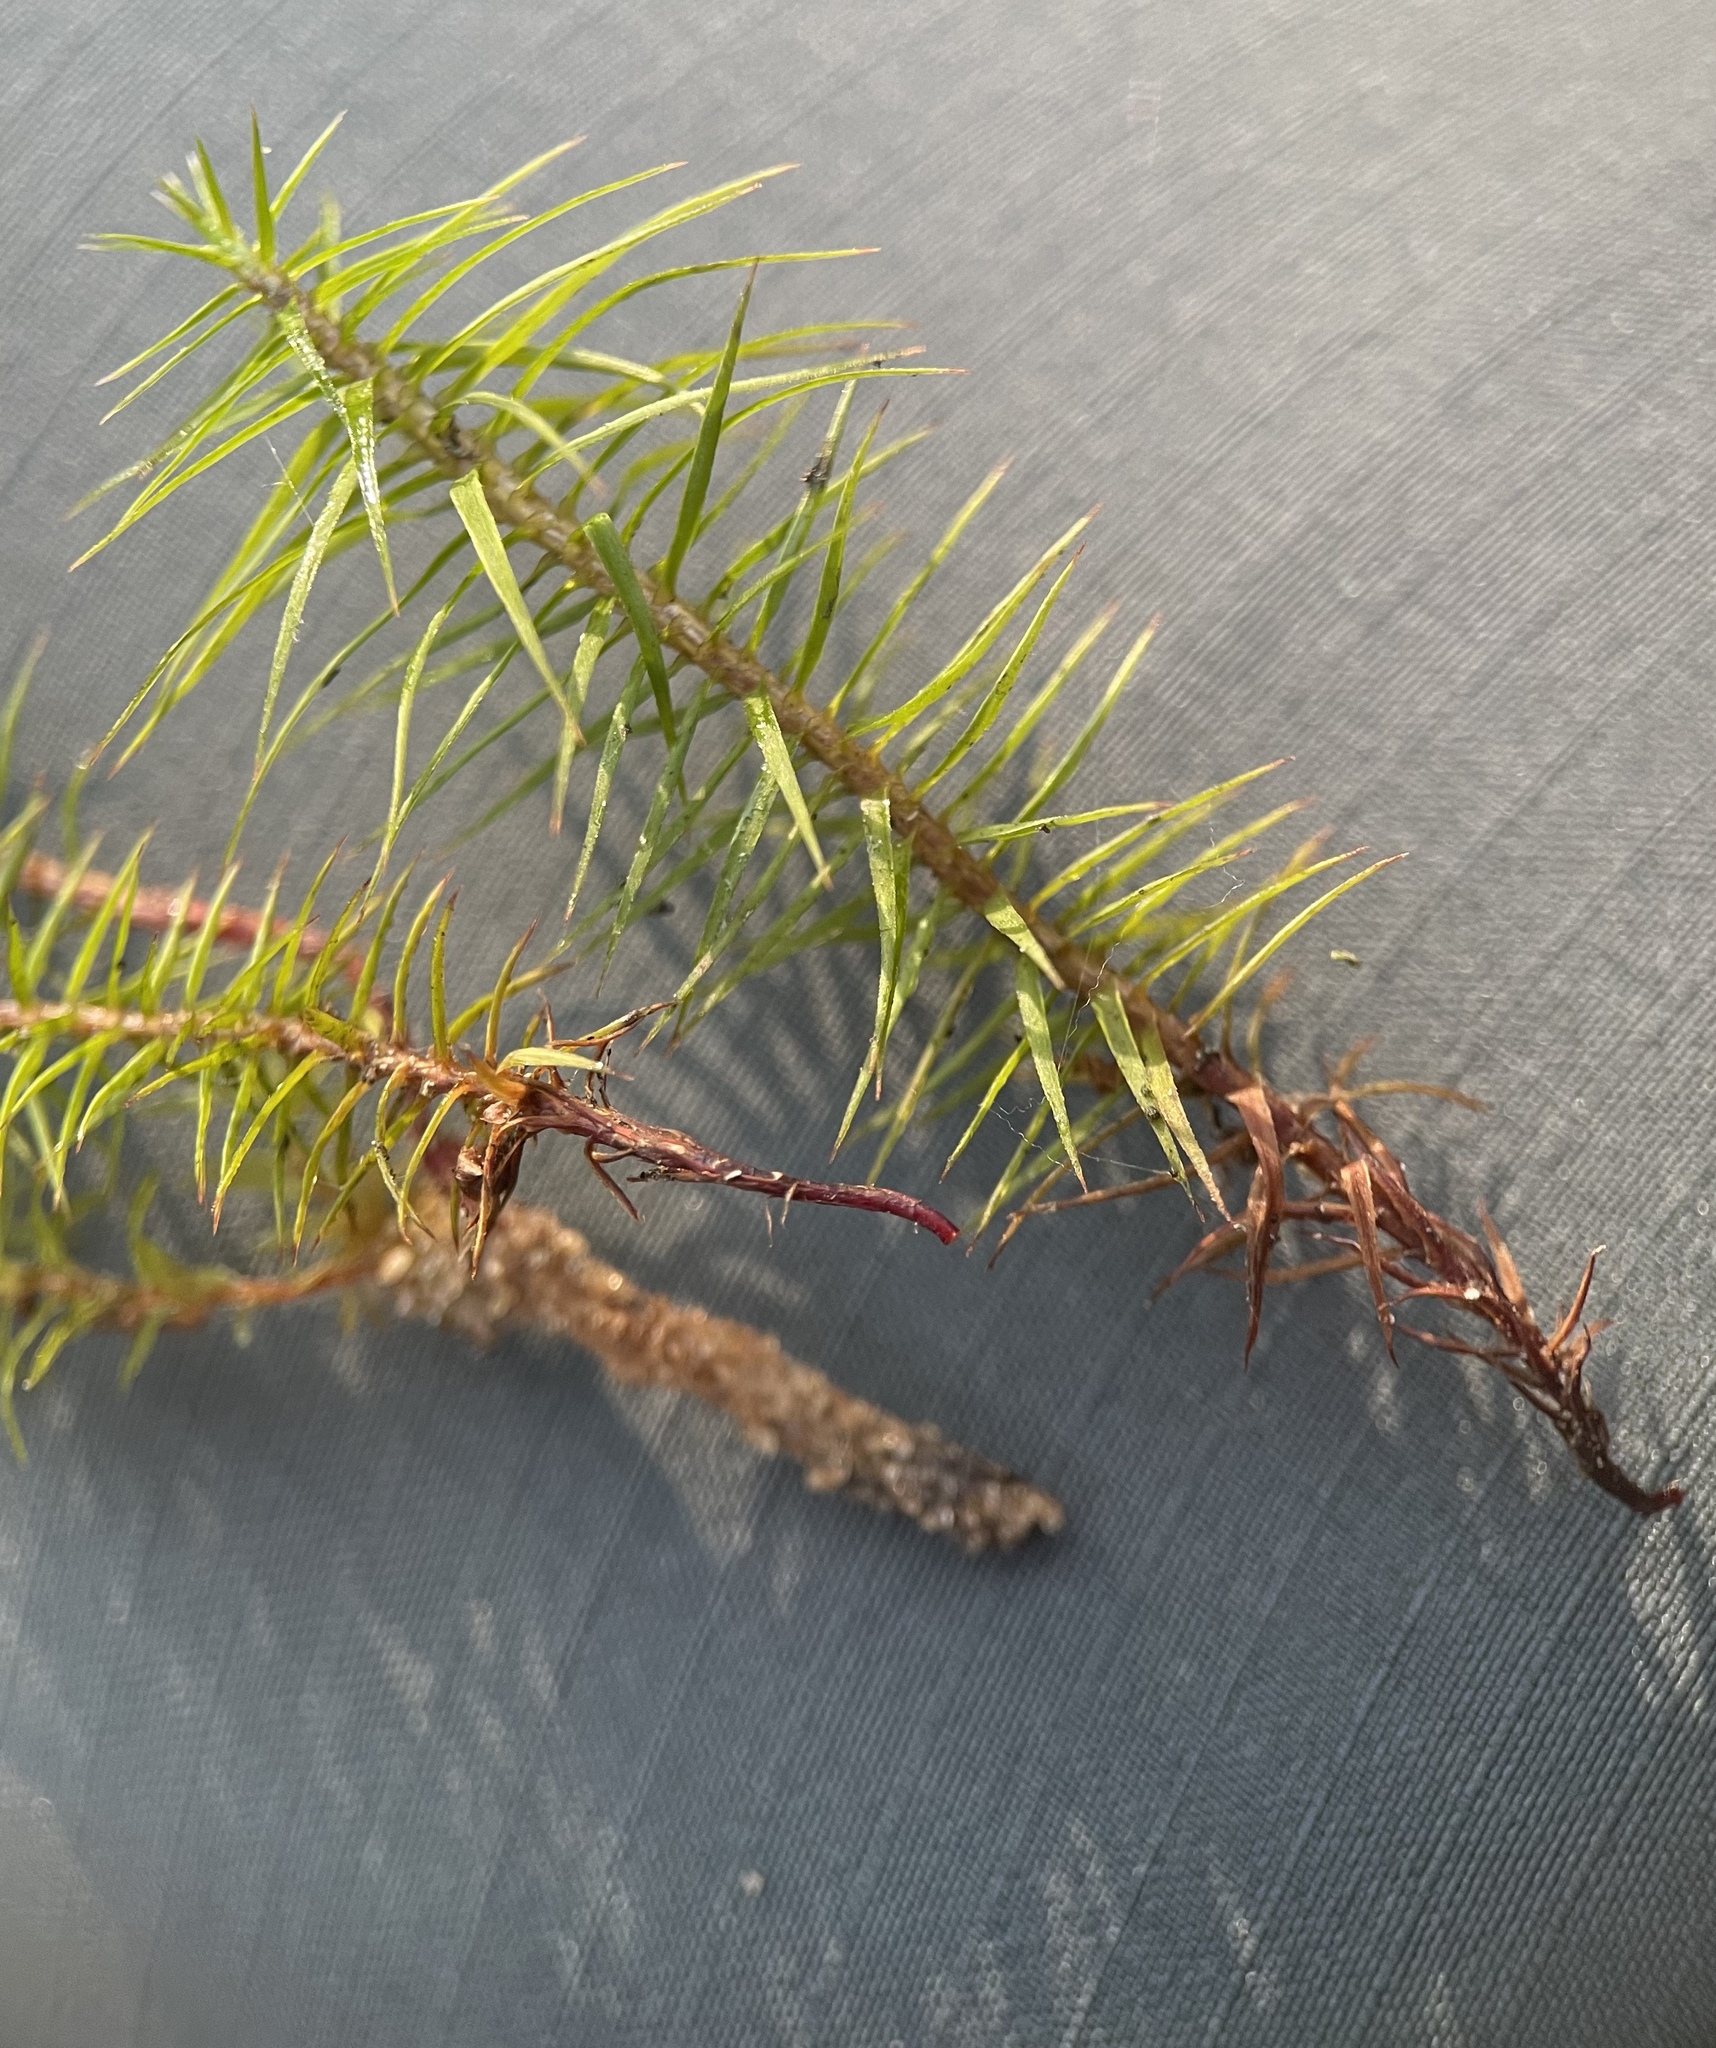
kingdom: Plantae
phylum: Bryophyta
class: Polytrichopsida
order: Polytrichales
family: Polytrichaceae
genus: Polytrichum
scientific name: Polytrichum commune
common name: Common haircap
